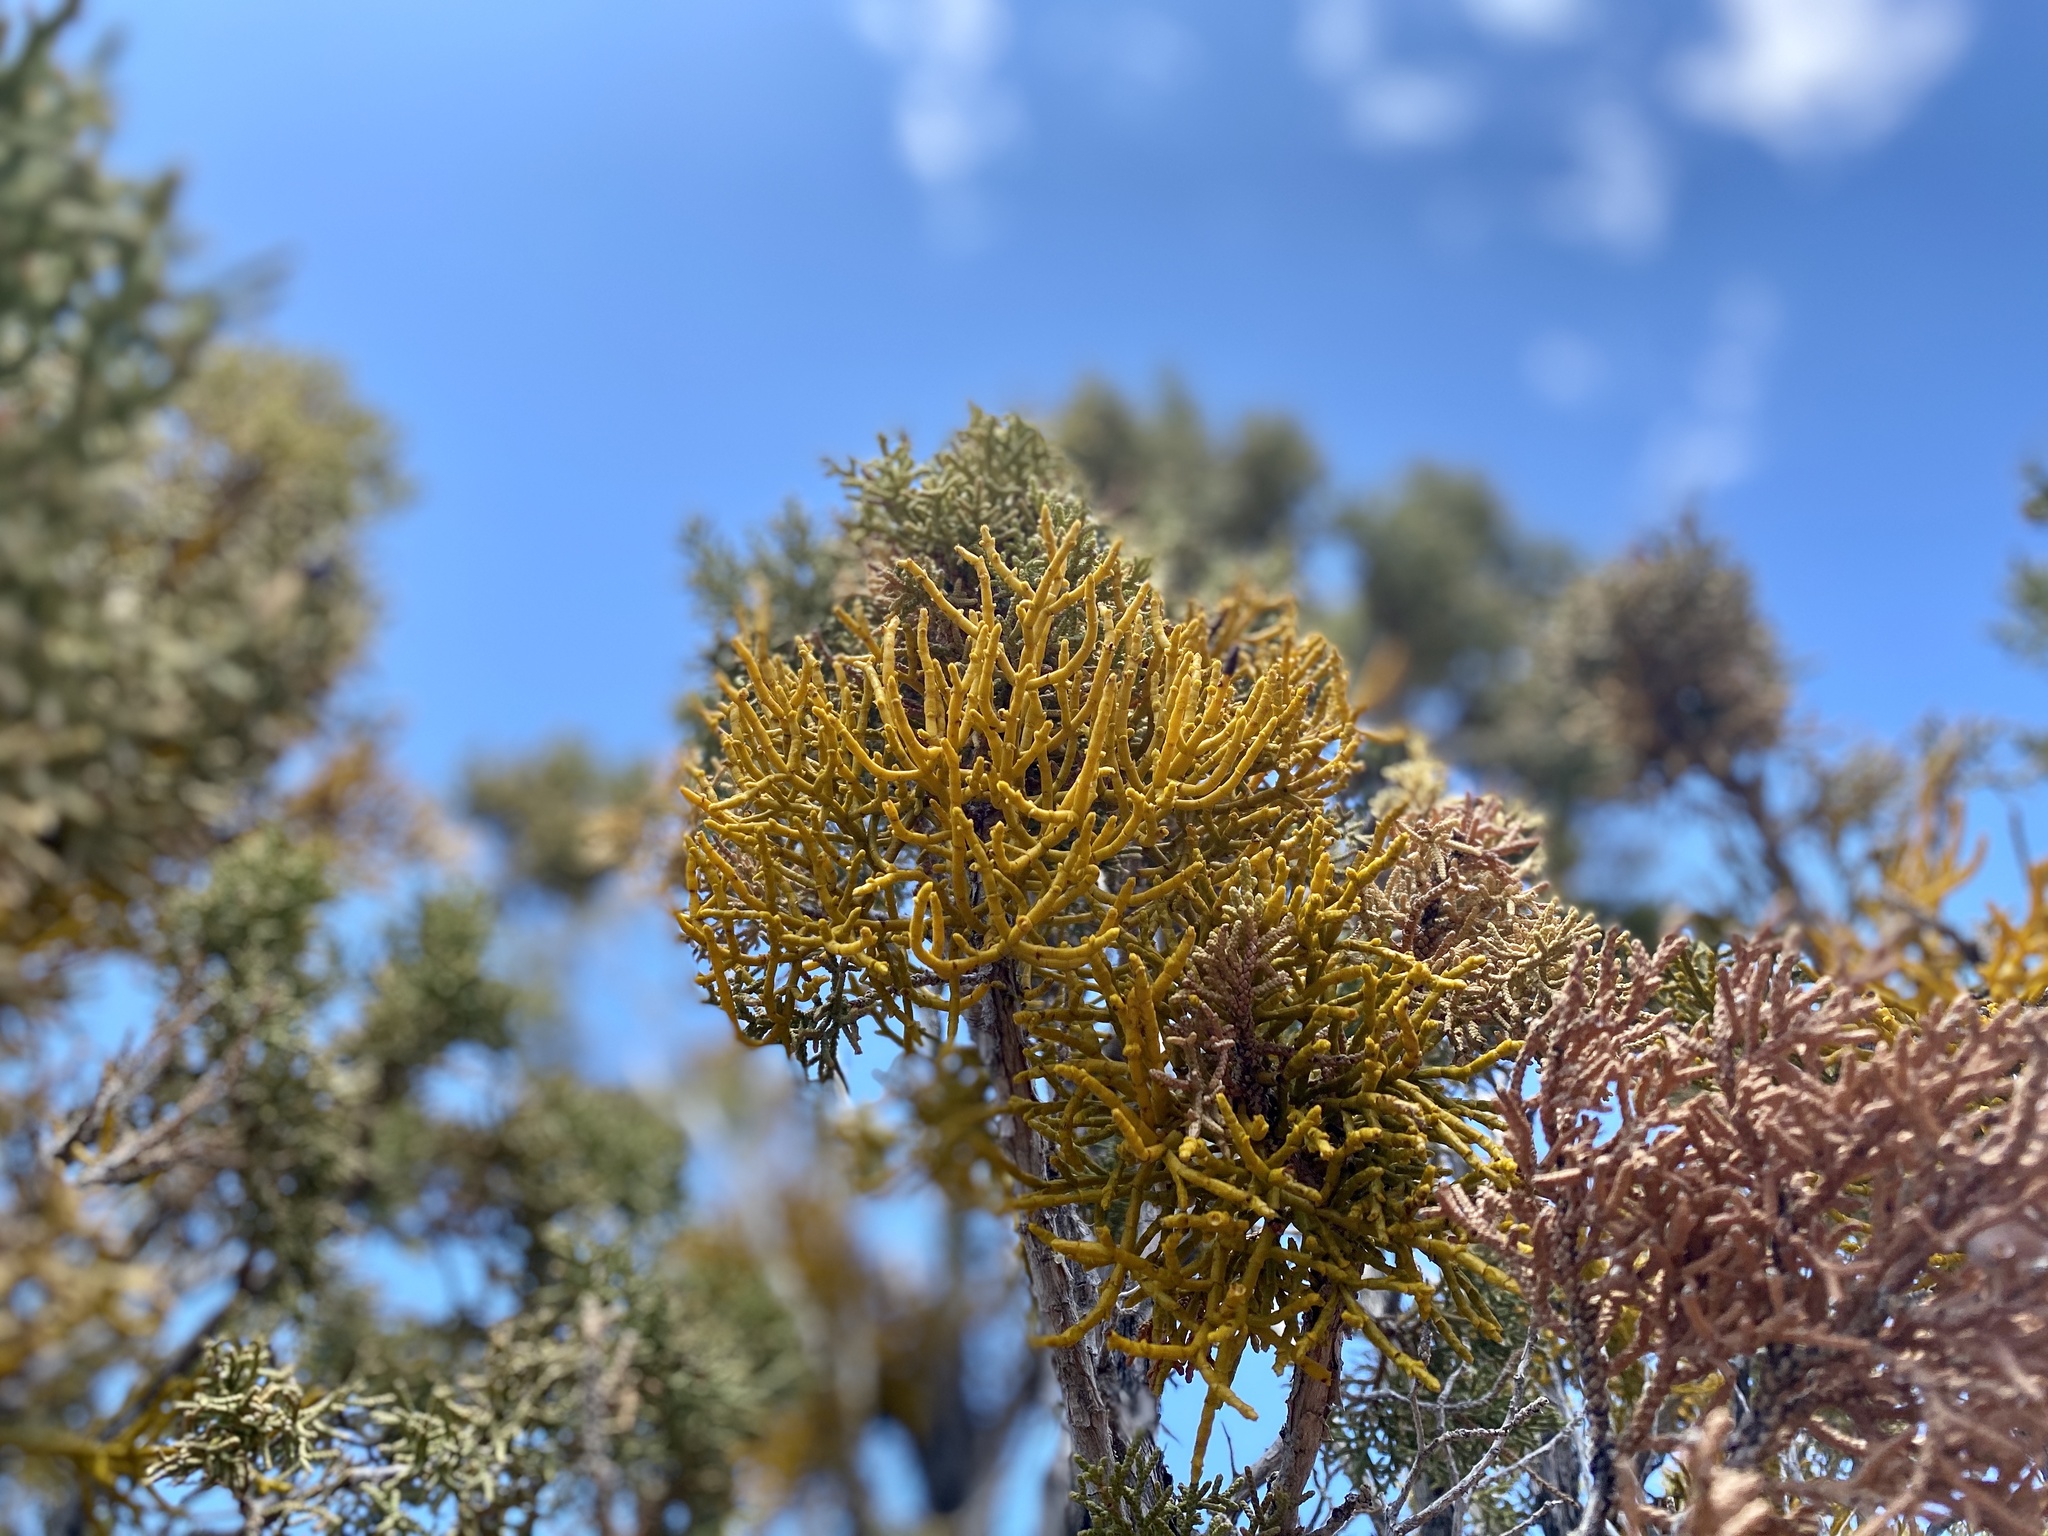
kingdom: Plantae
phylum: Tracheophyta
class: Magnoliopsida
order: Santalales
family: Viscaceae
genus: Phoradendron
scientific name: Phoradendron juniperinum
